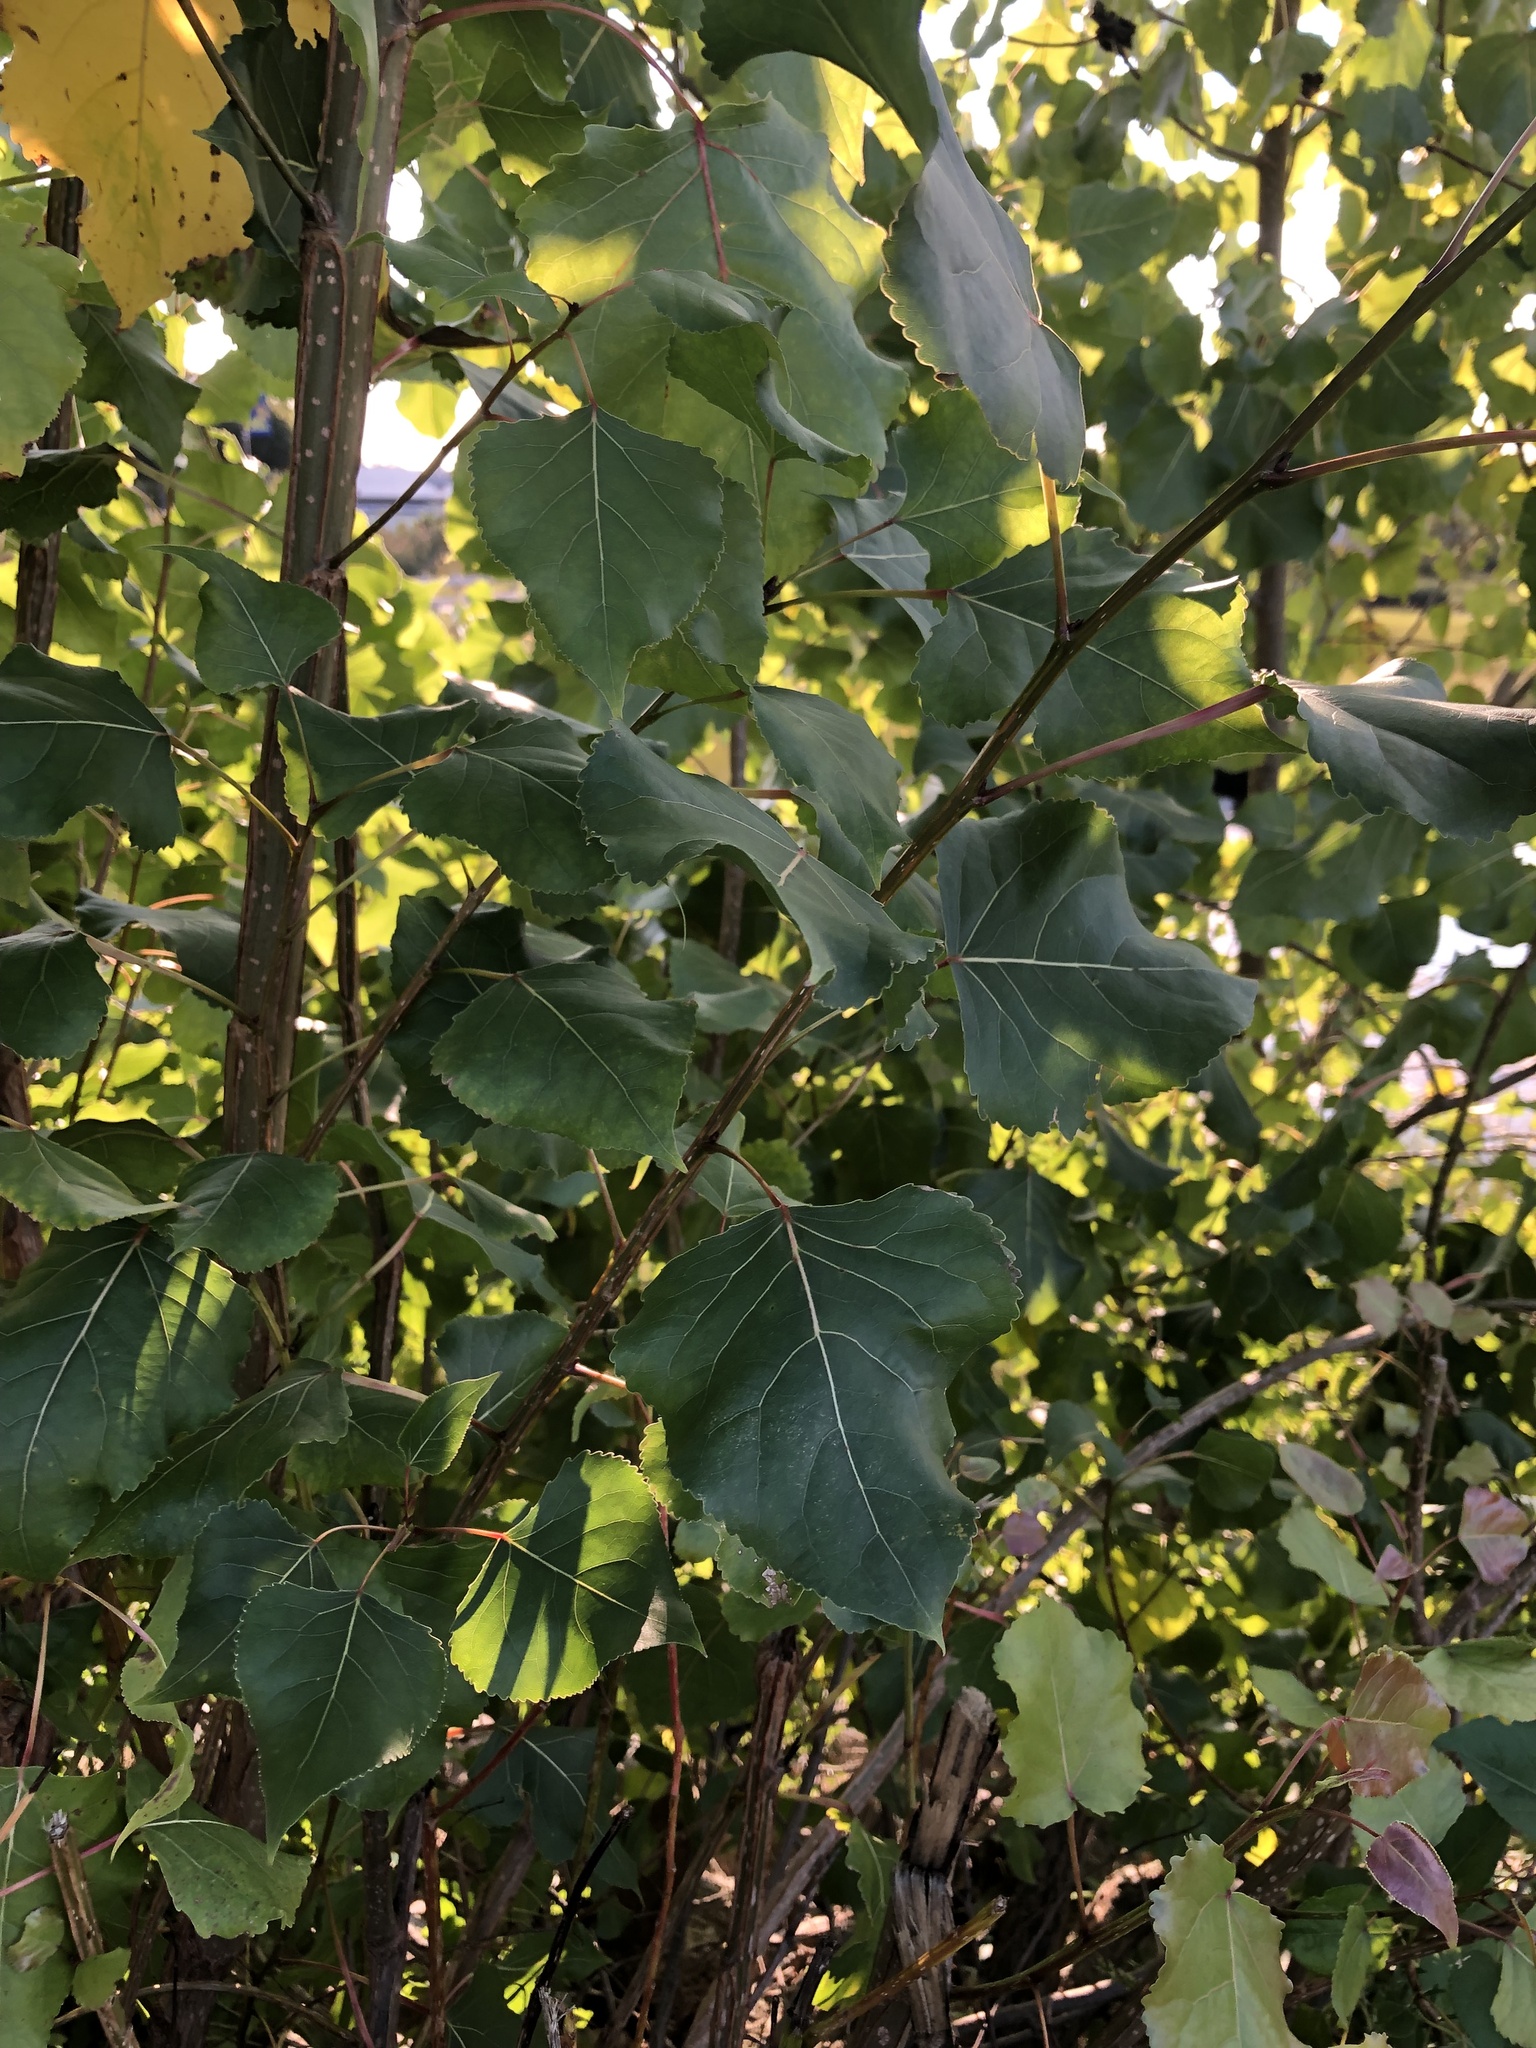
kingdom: Plantae
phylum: Tracheophyta
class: Magnoliopsida
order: Malpighiales
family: Salicaceae
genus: Populus
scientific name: Populus deltoides
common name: Eastern cottonwood
